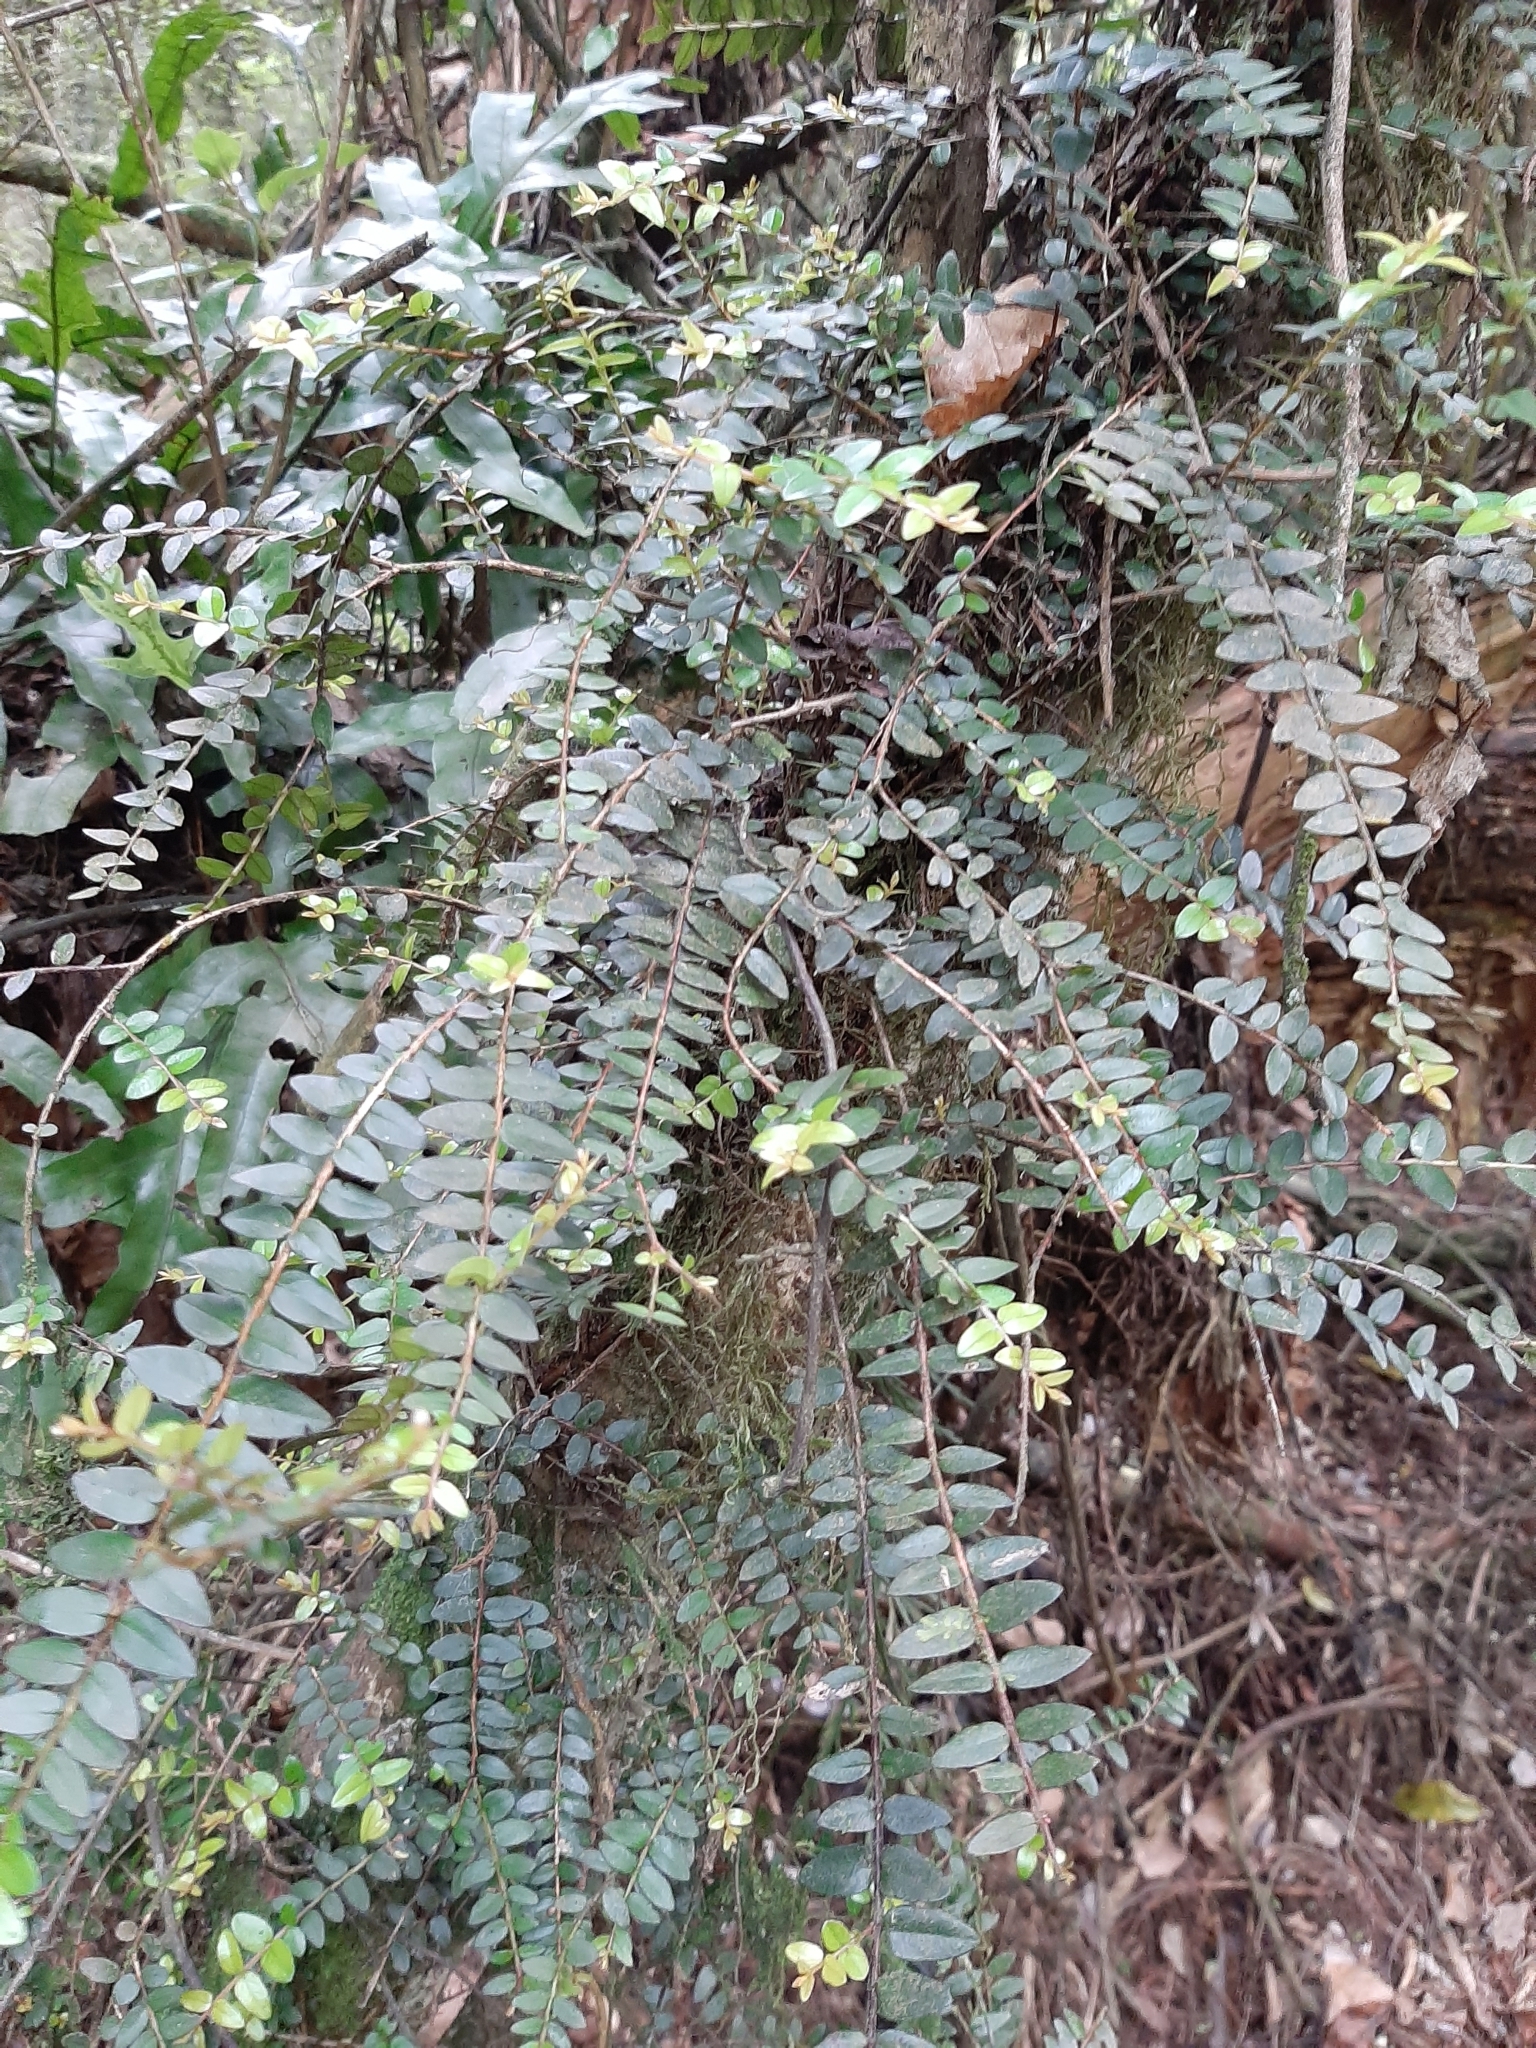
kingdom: Plantae
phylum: Tracheophyta
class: Magnoliopsida
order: Myrtales
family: Myrtaceae
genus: Metrosideros
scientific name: Metrosideros diffusa
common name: Small ratavine
